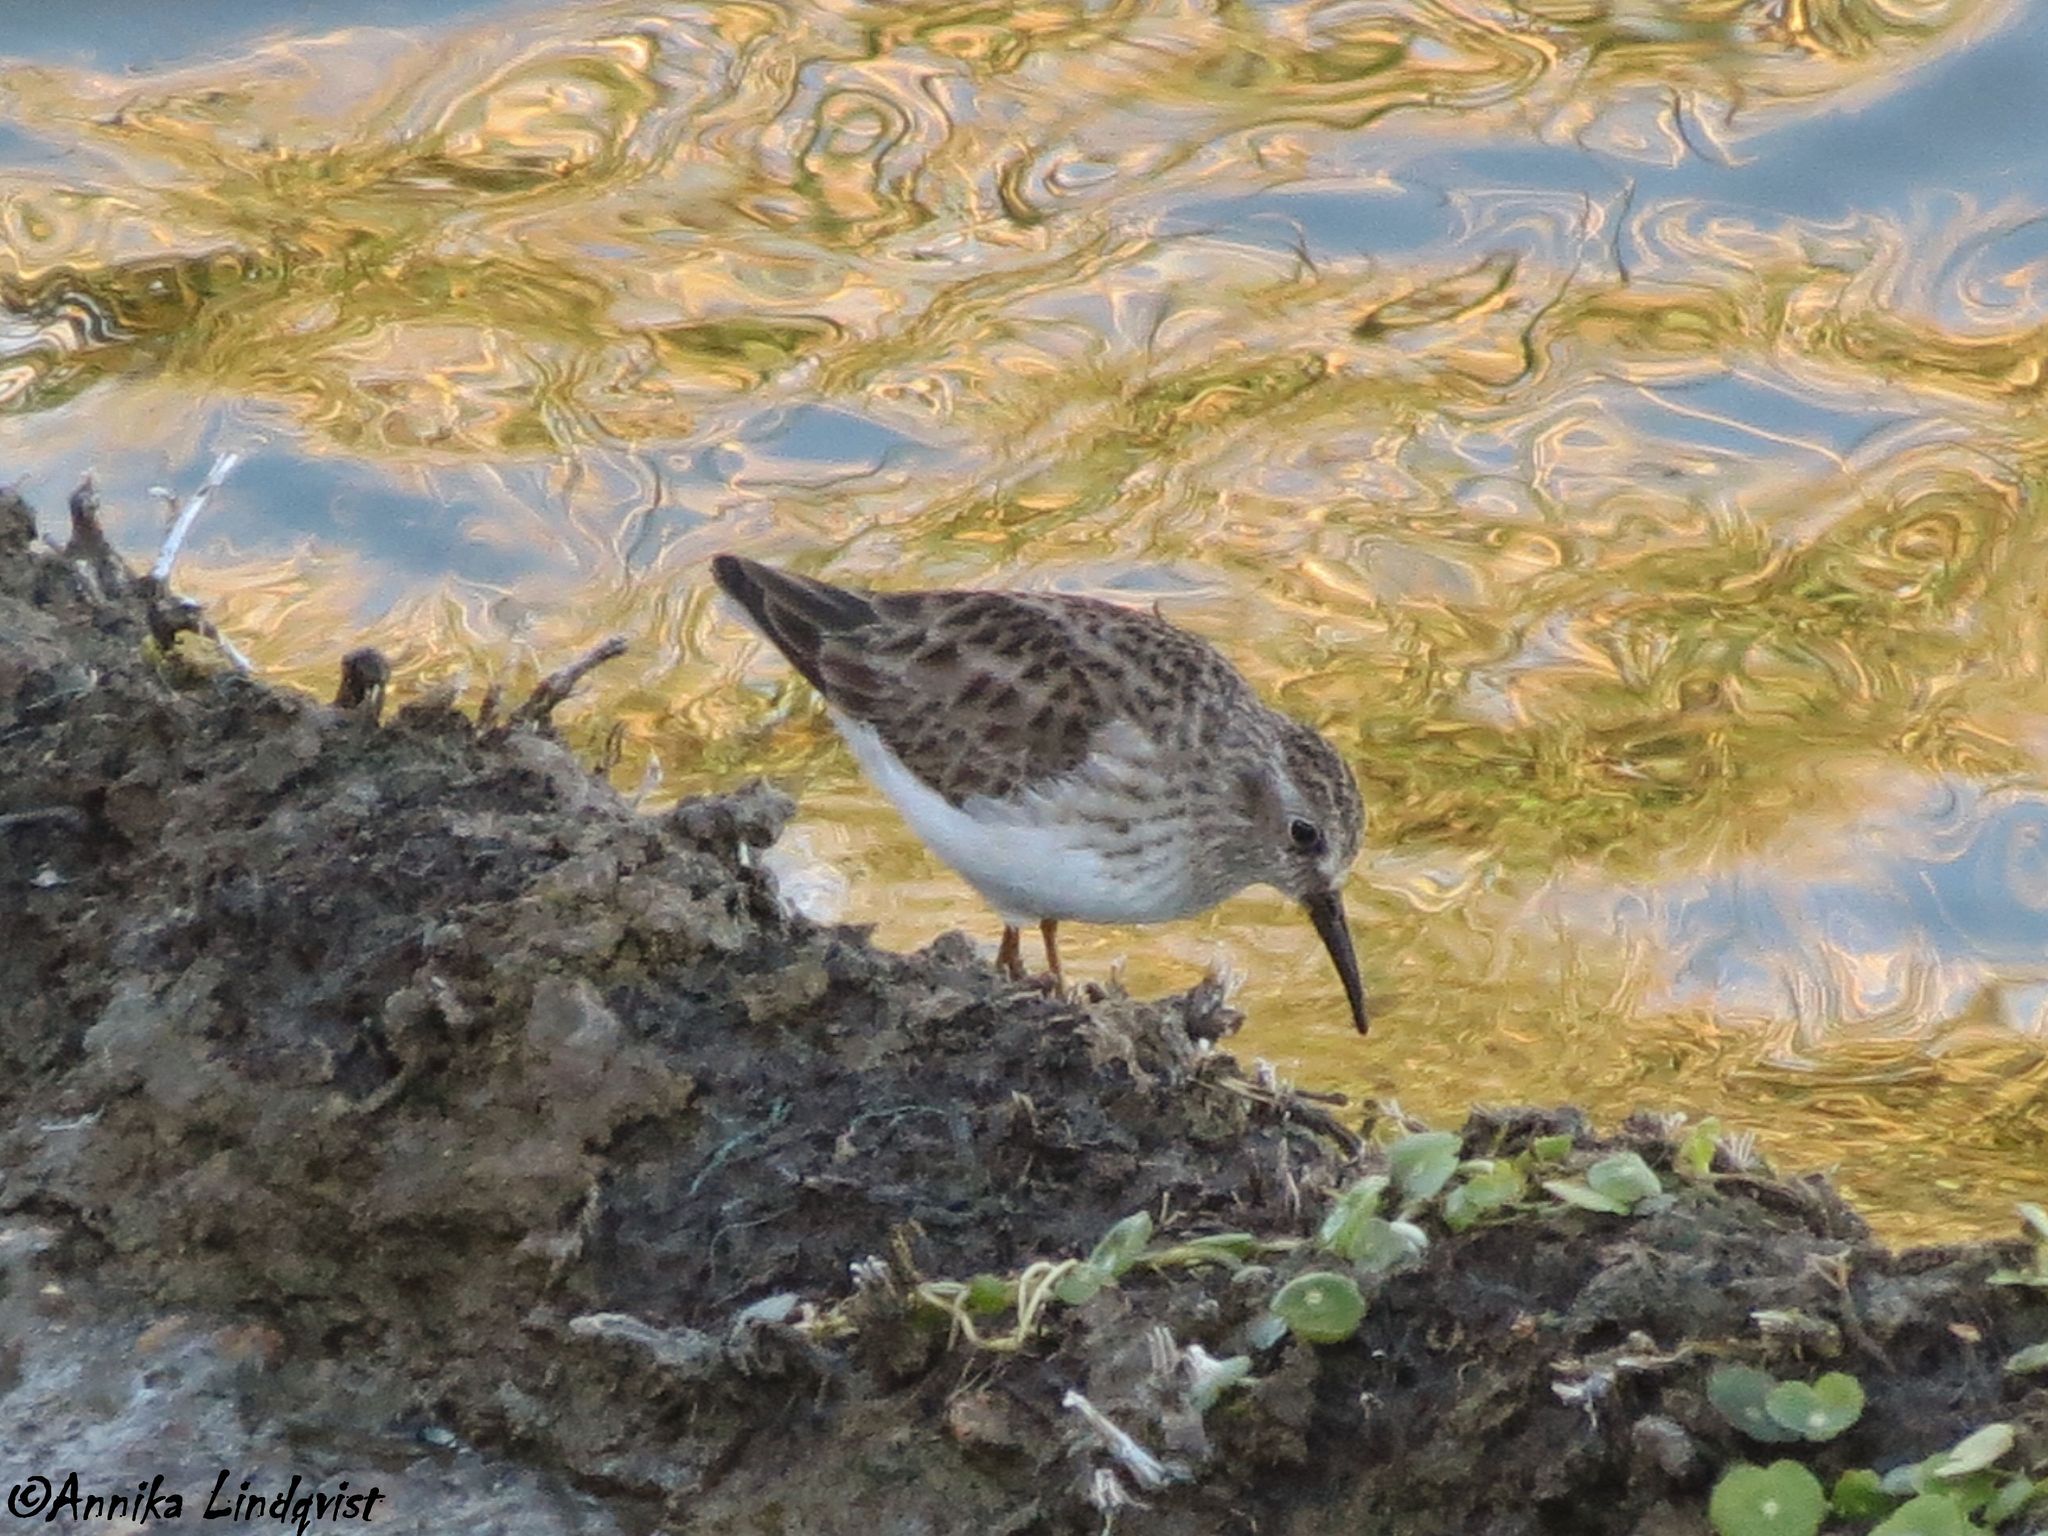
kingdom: Animalia
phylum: Chordata
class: Aves
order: Charadriiformes
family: Scolopacidae
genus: Calidris
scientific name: Calidris minutilla
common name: Least sandpiper
